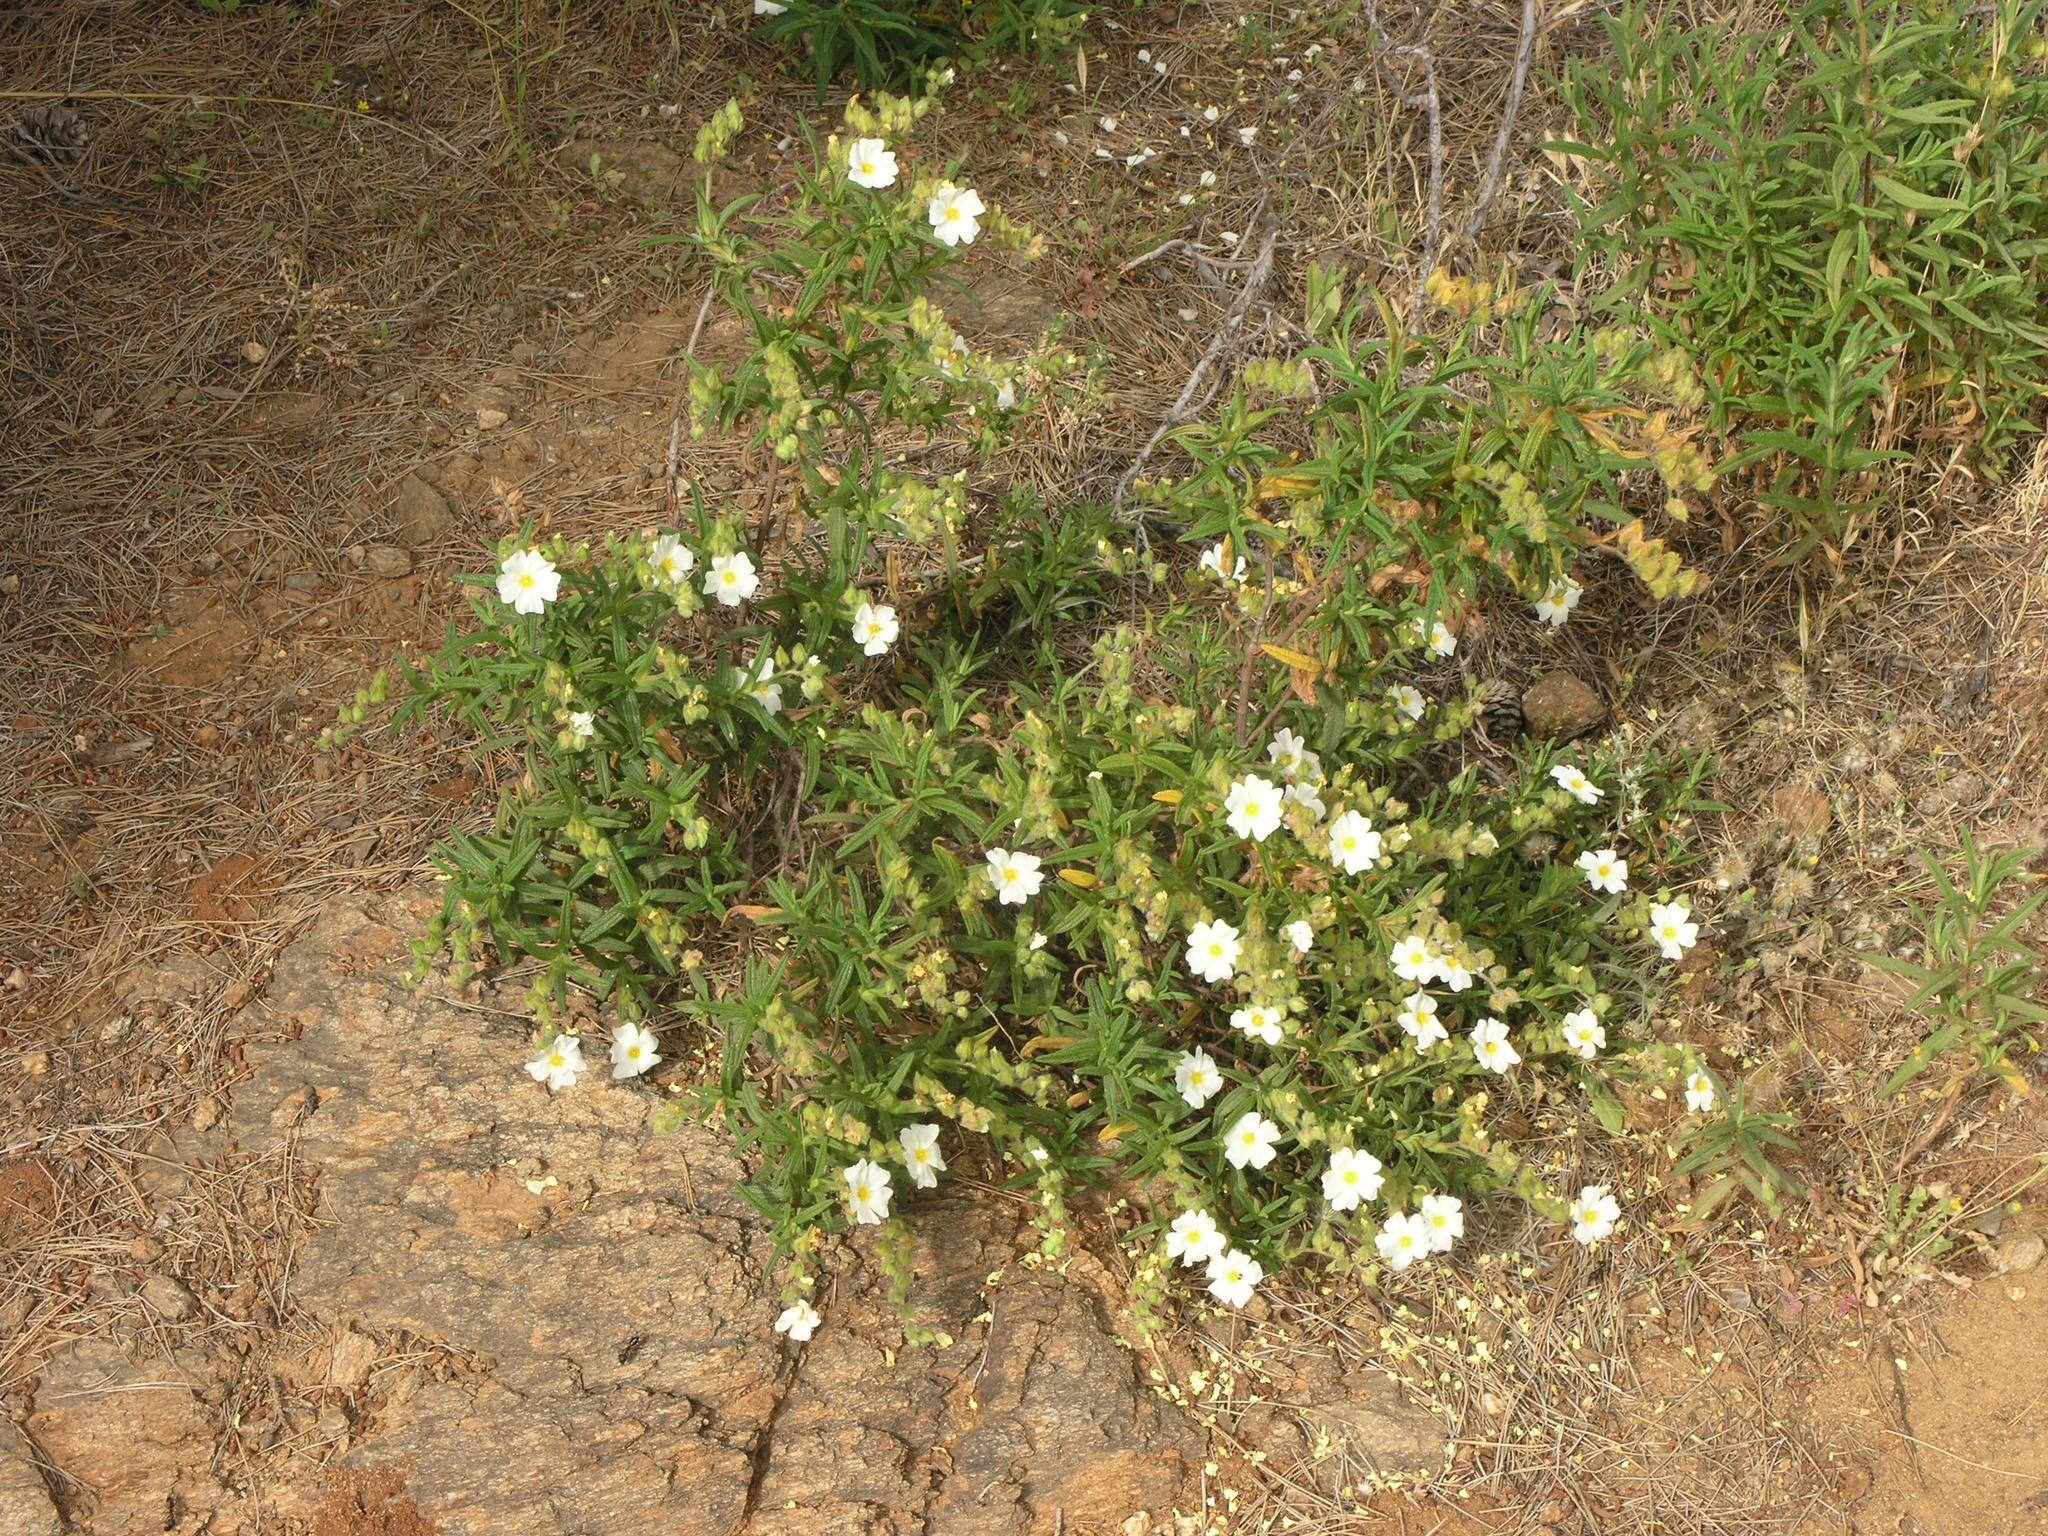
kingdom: Plantae
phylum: Tracheophyta
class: Magnoliopsida
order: Malvales
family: Cistaceae
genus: Cistus
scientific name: Cistus monspeliensis
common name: Montpelier cistus
